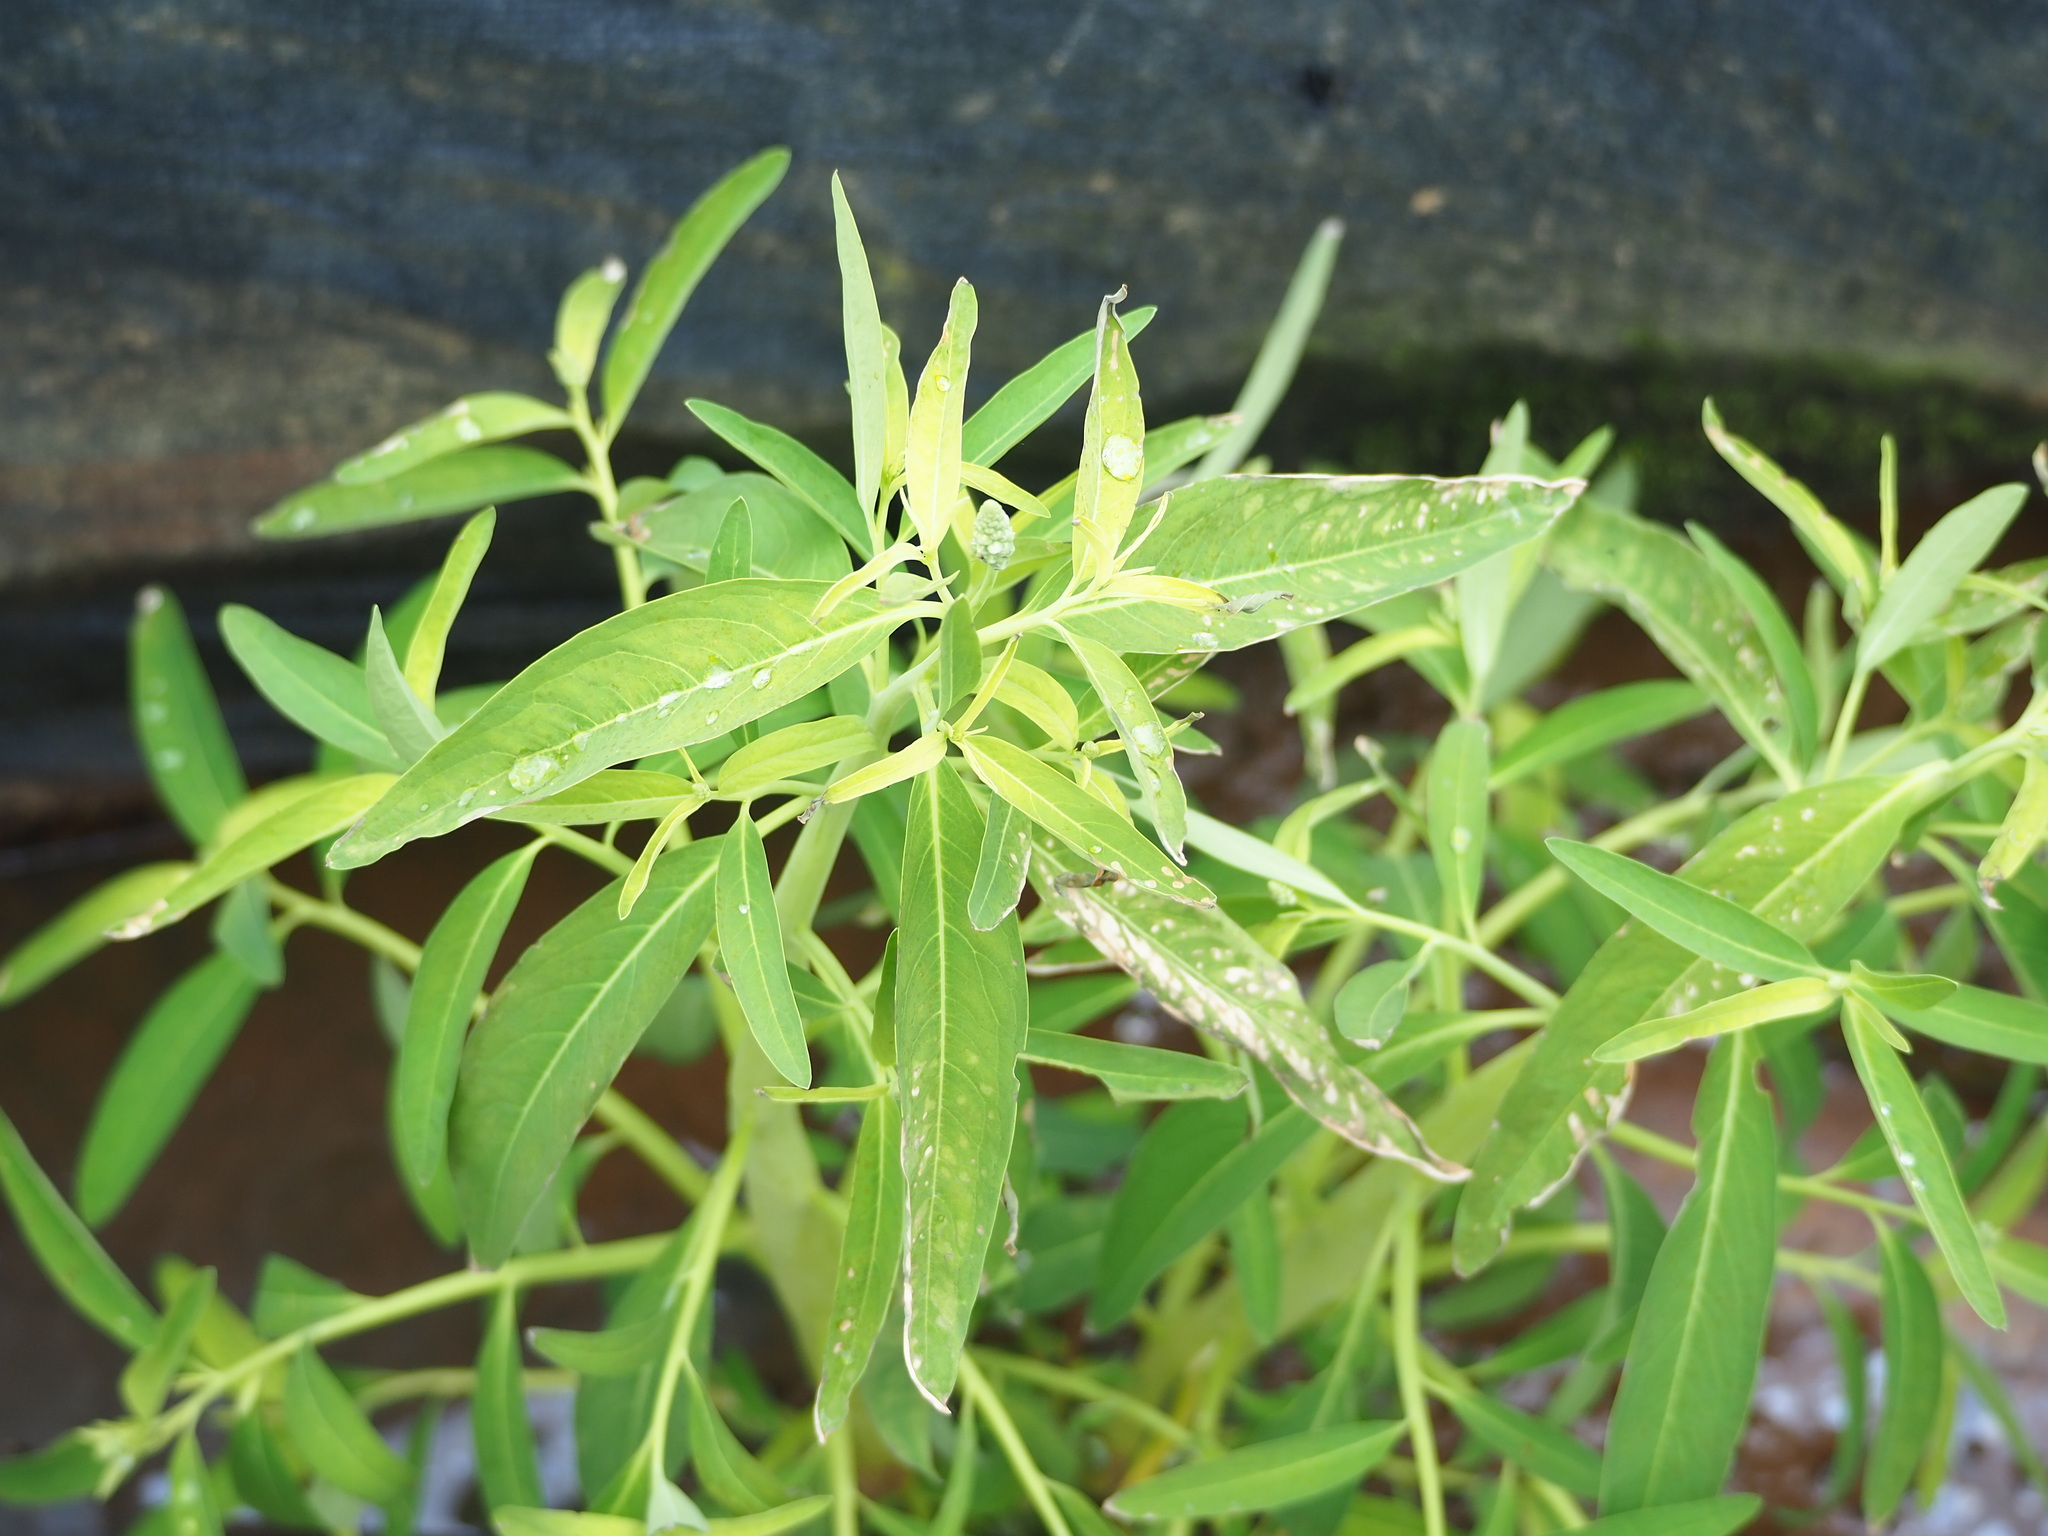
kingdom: Plantae
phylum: Tracheophyta
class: Magnoliopsida
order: Solanales
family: Sphenocleaceae
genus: Sphenoclea
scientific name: Sphenoclea zeylanica
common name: Chickenspike
